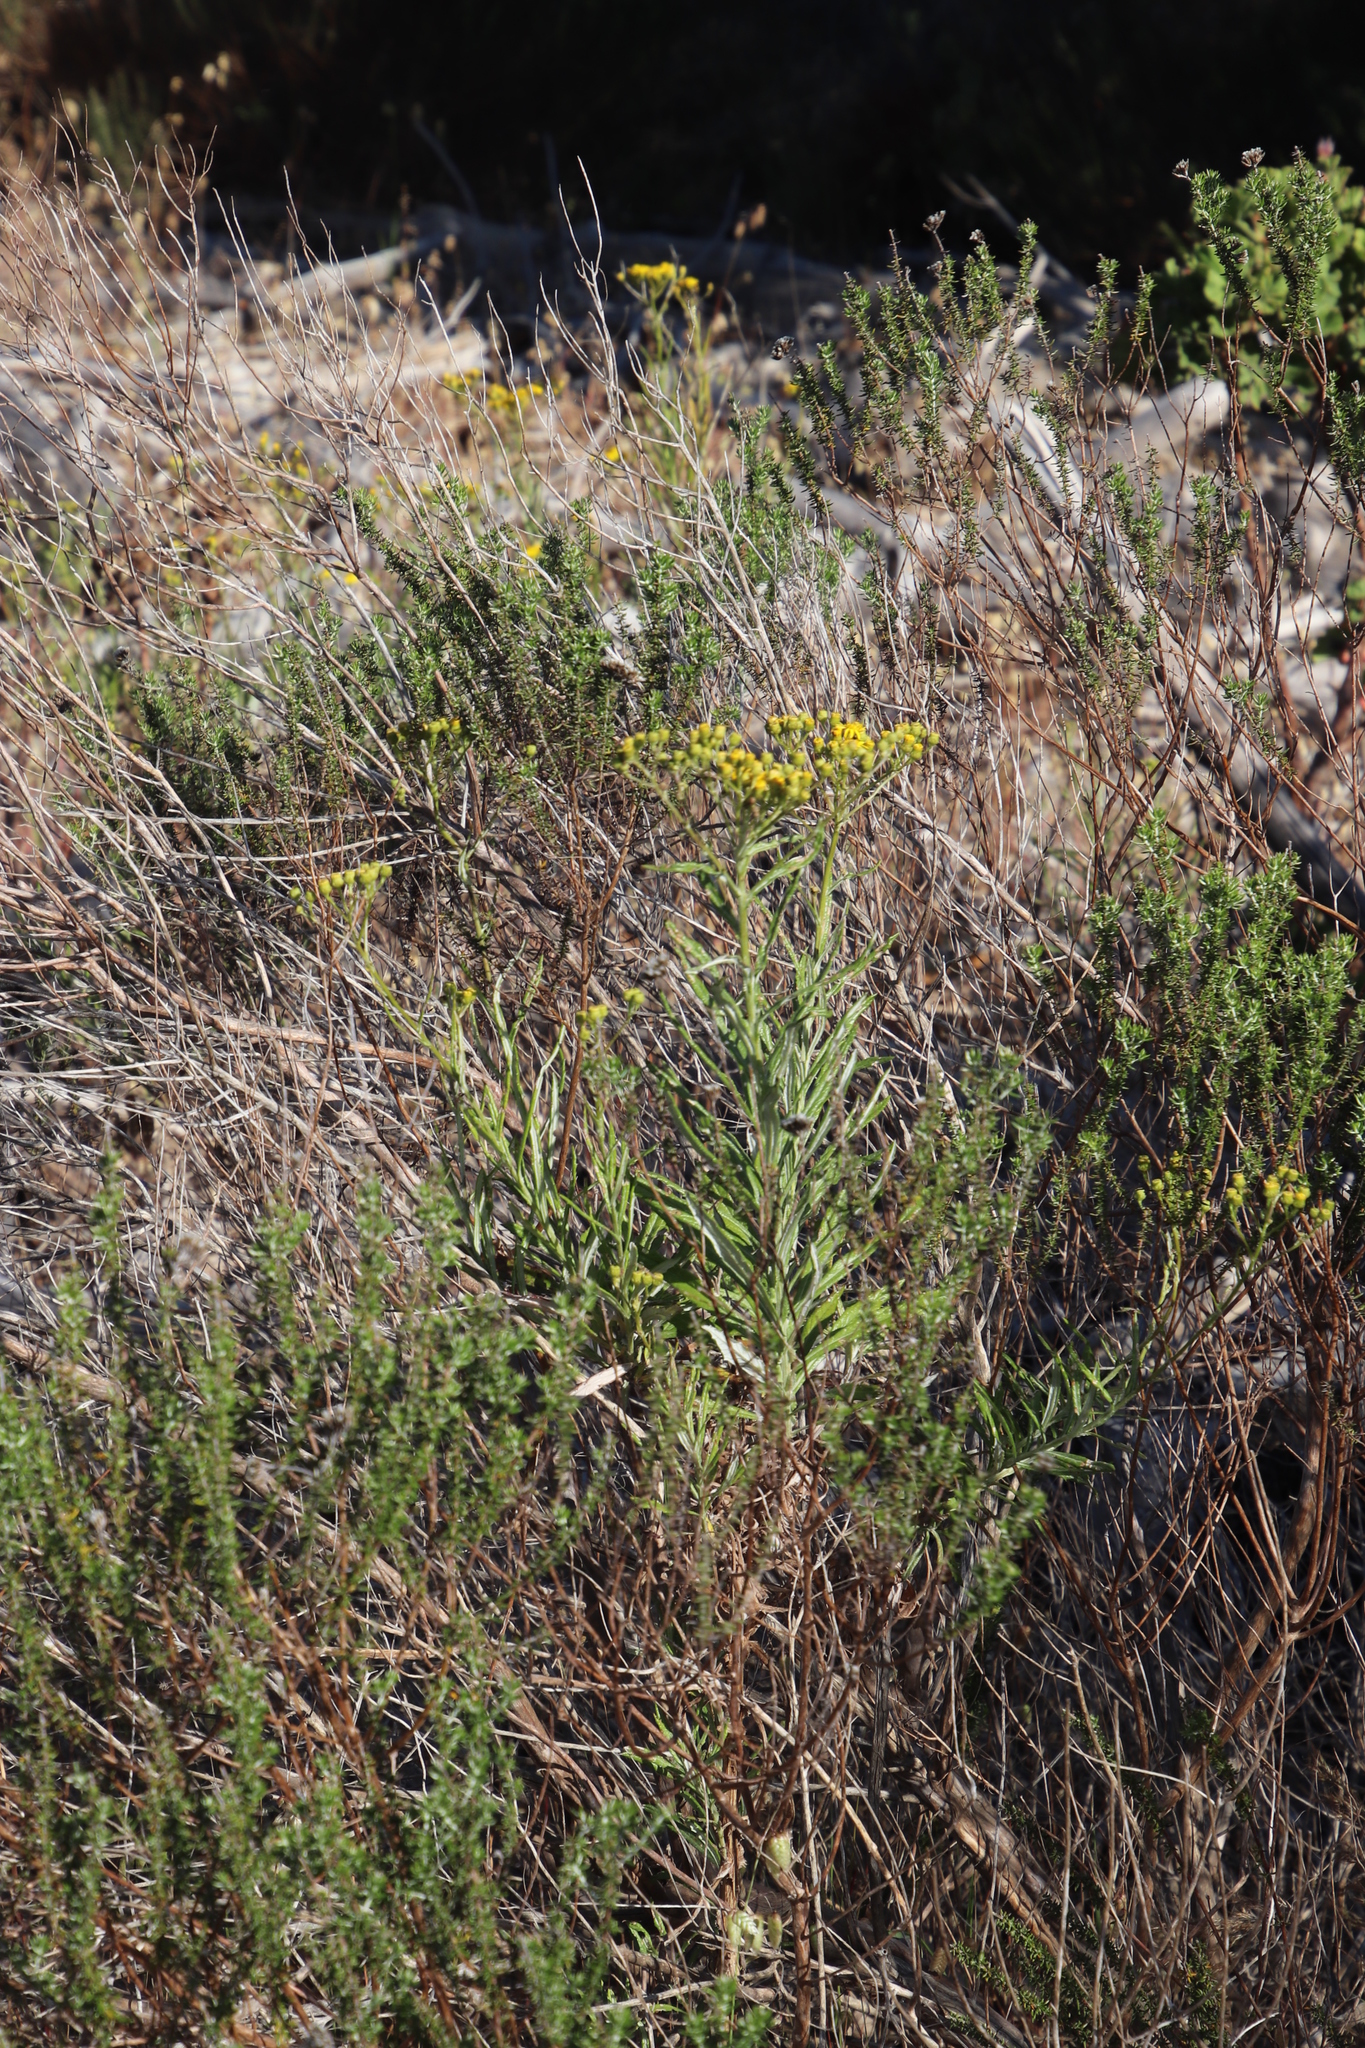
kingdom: Plantae
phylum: Tracheophyta
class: Magnoliopsida
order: Asterales
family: Asteraceae
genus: Senecio
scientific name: Senecio pterophorus
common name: Shoddy ragwort
